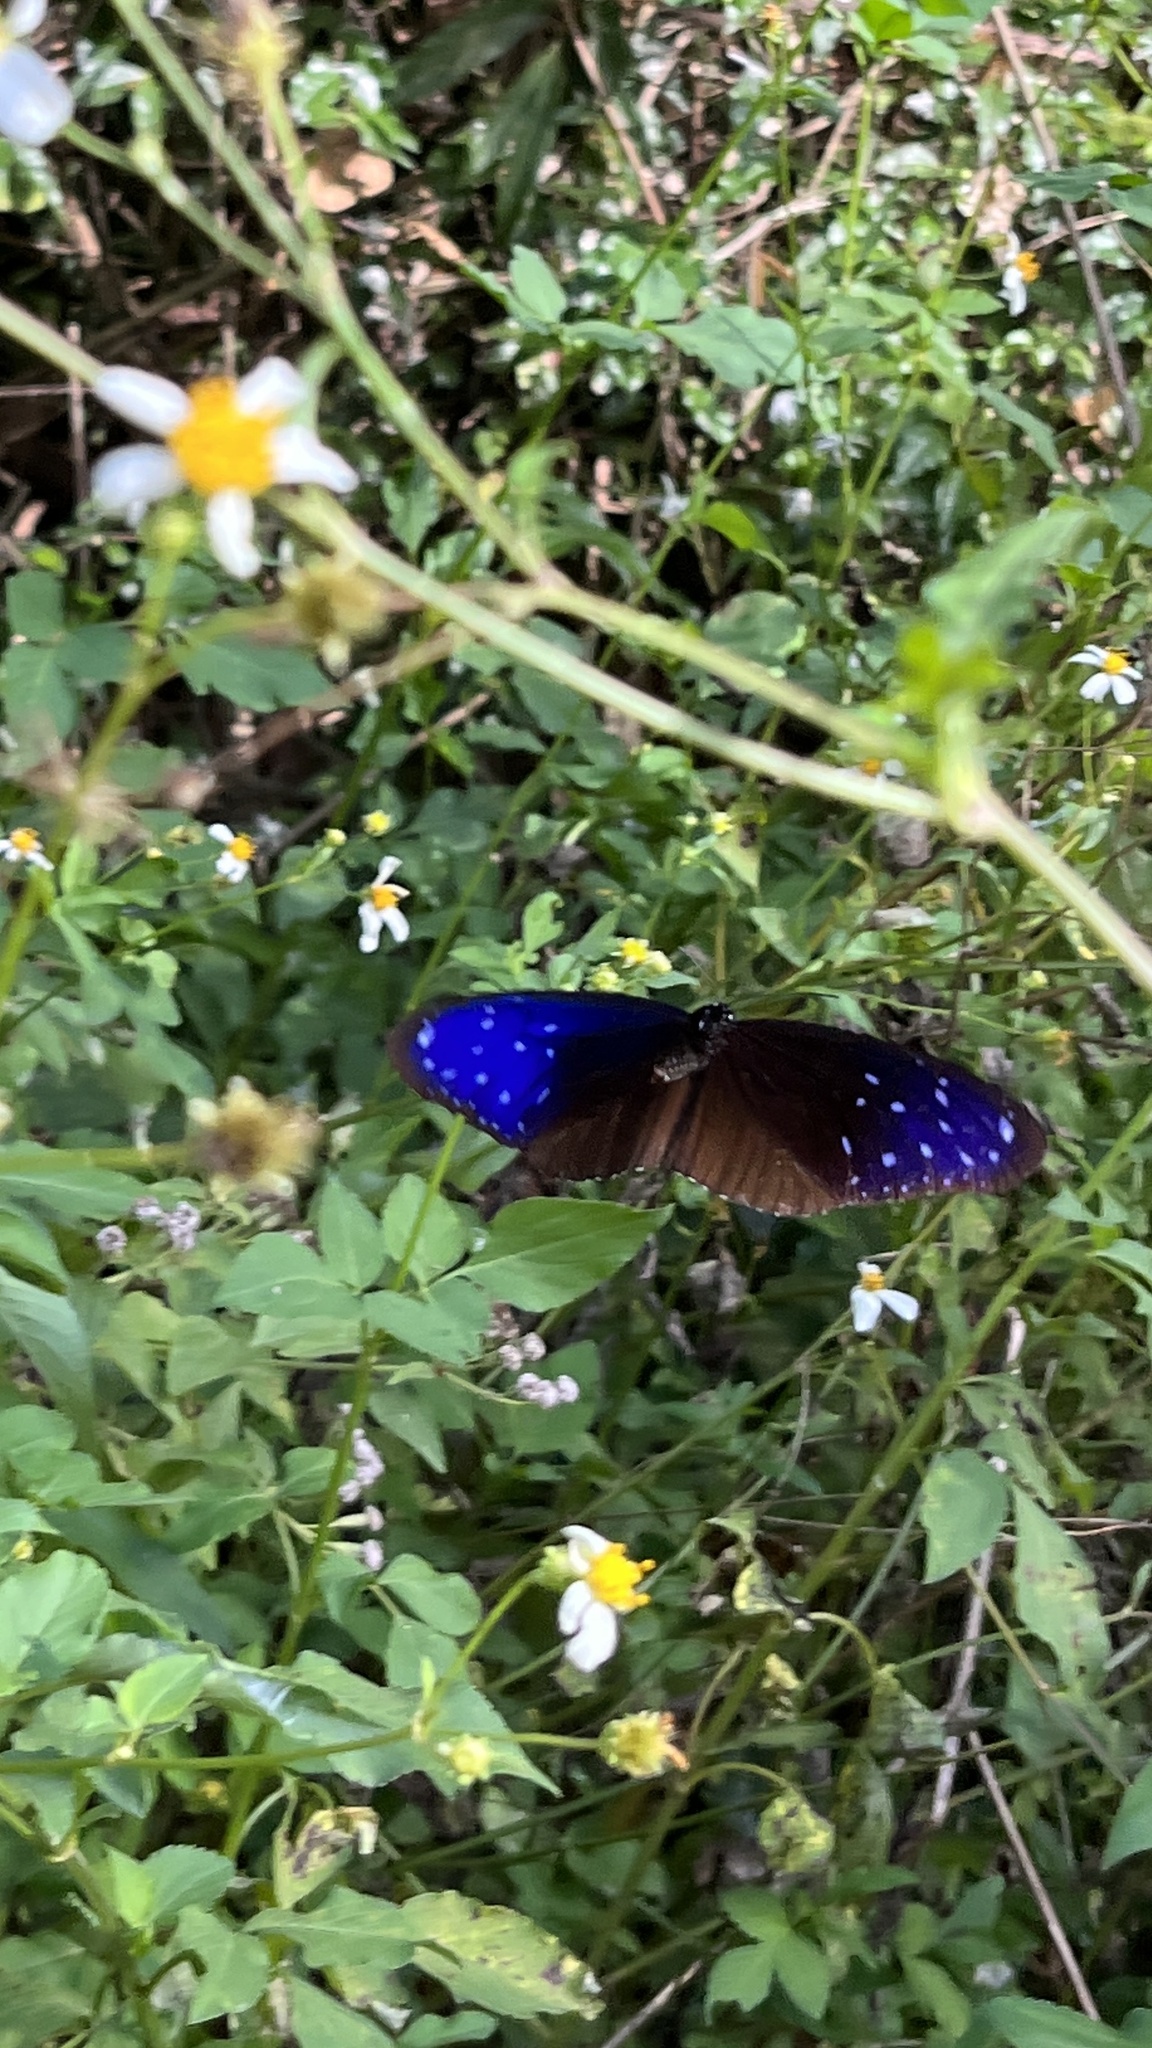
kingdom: Animalia
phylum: Arthropoda
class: Insecta
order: Lepidoptera
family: Nymphalidae
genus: Euploea
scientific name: Euploea mulciber
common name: Striped blue crow butterfly
